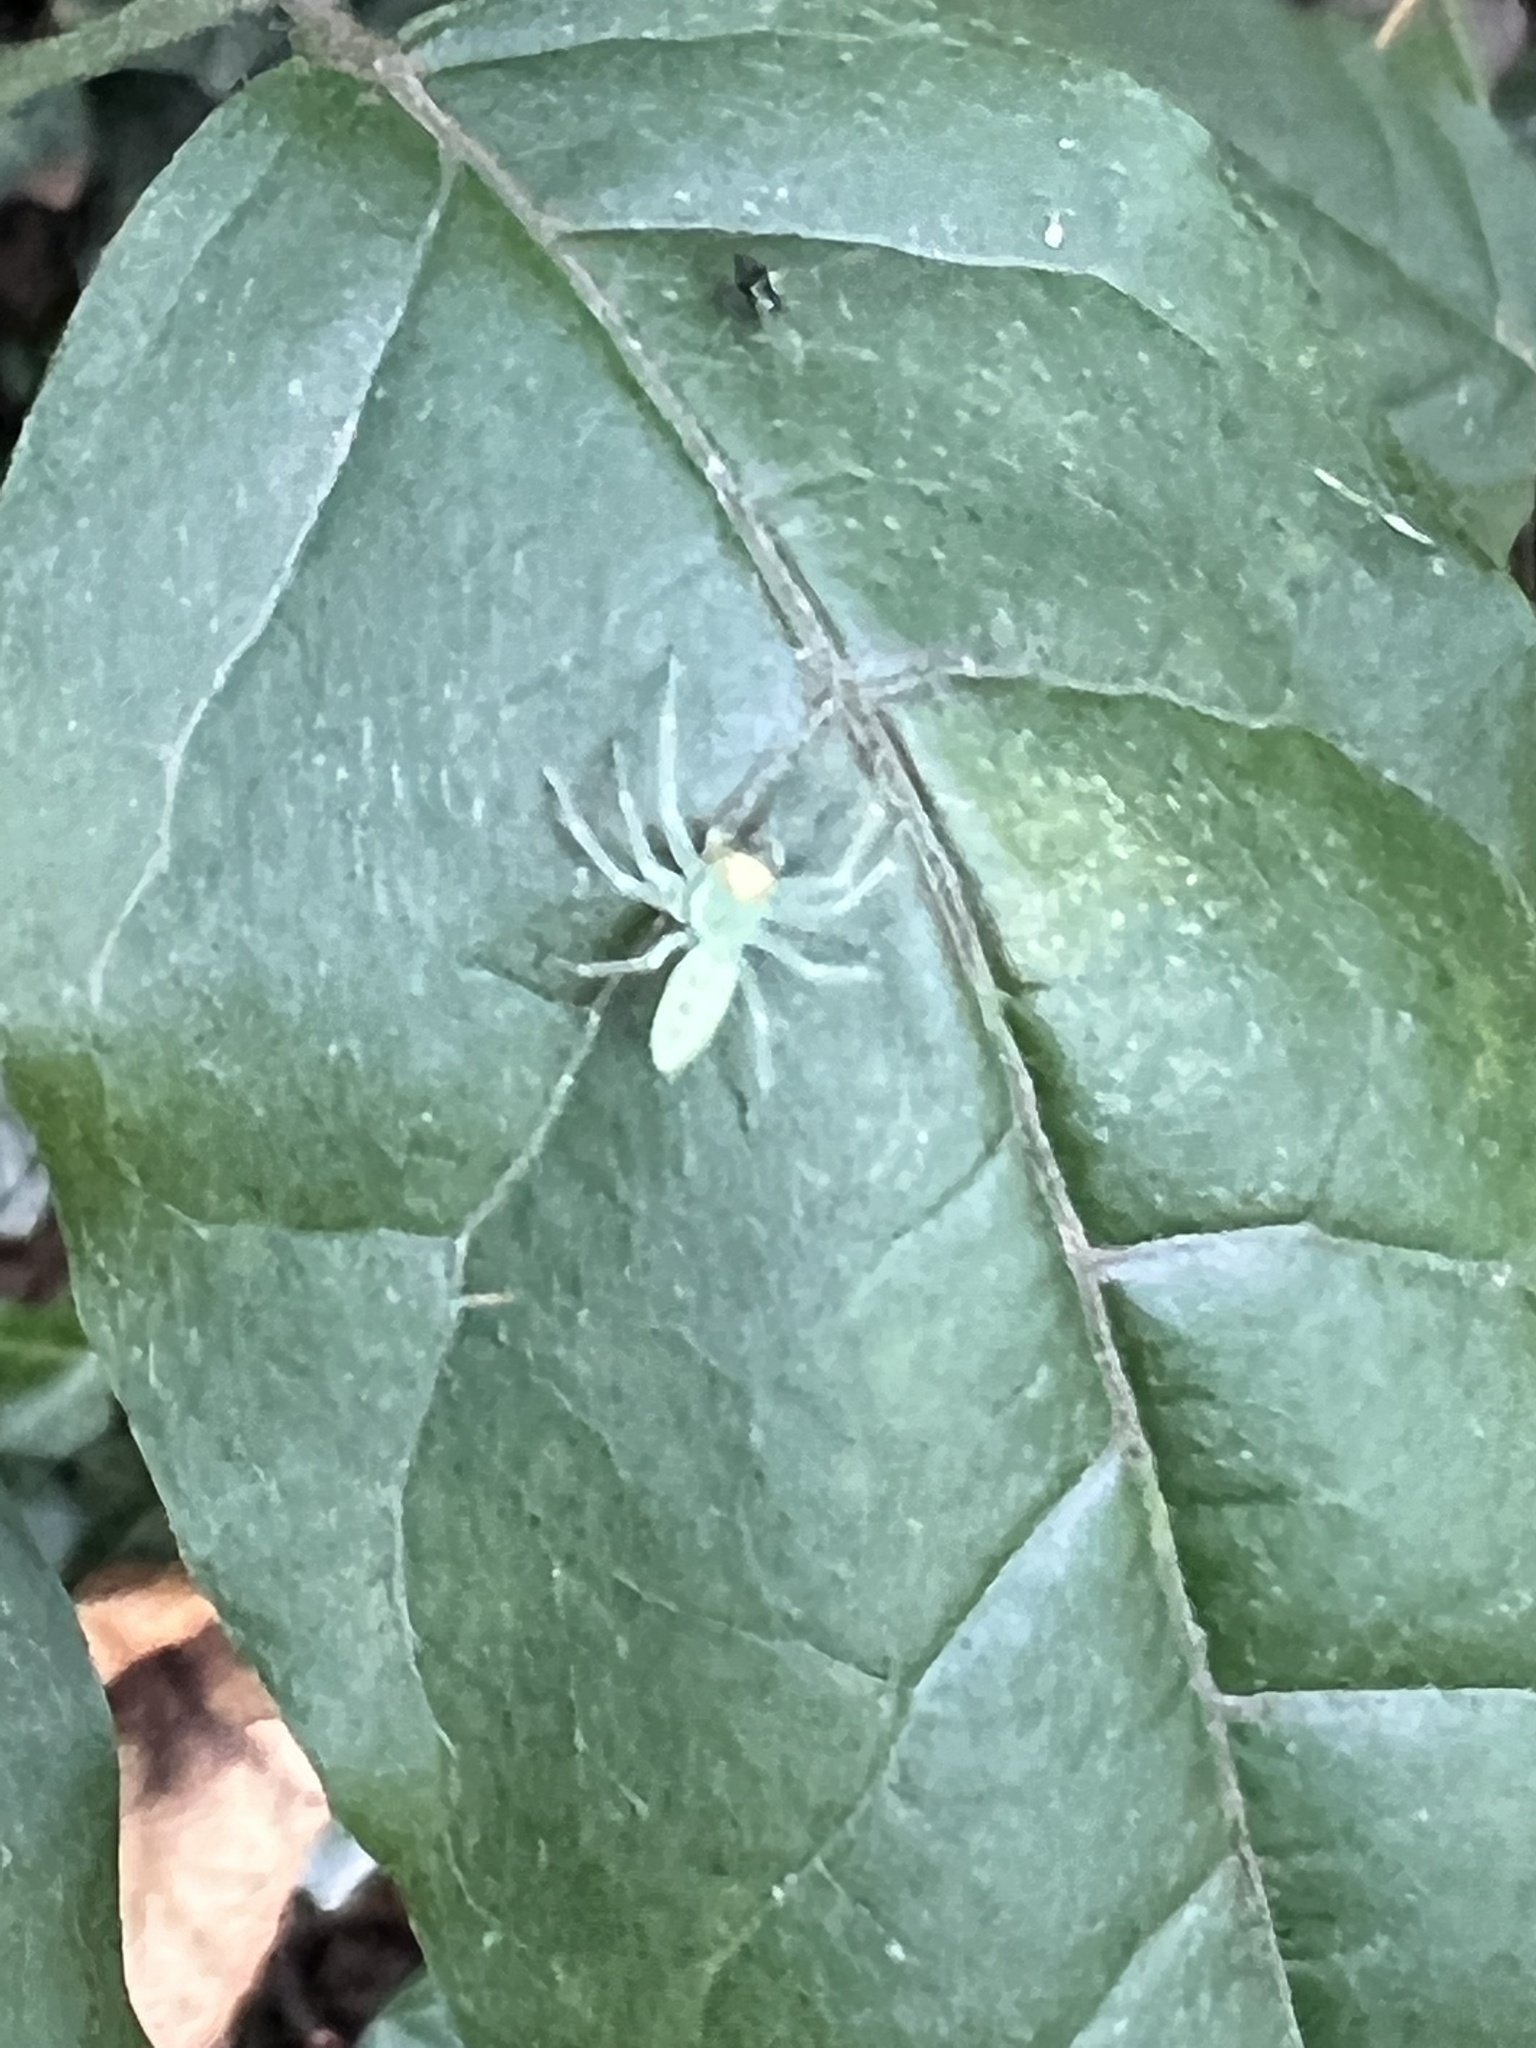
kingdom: Animalia
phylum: Arthropoda
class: Arachnida
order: Araneae
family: Salticidae
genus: Lyssomanes
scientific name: Lyssomanes viridis
